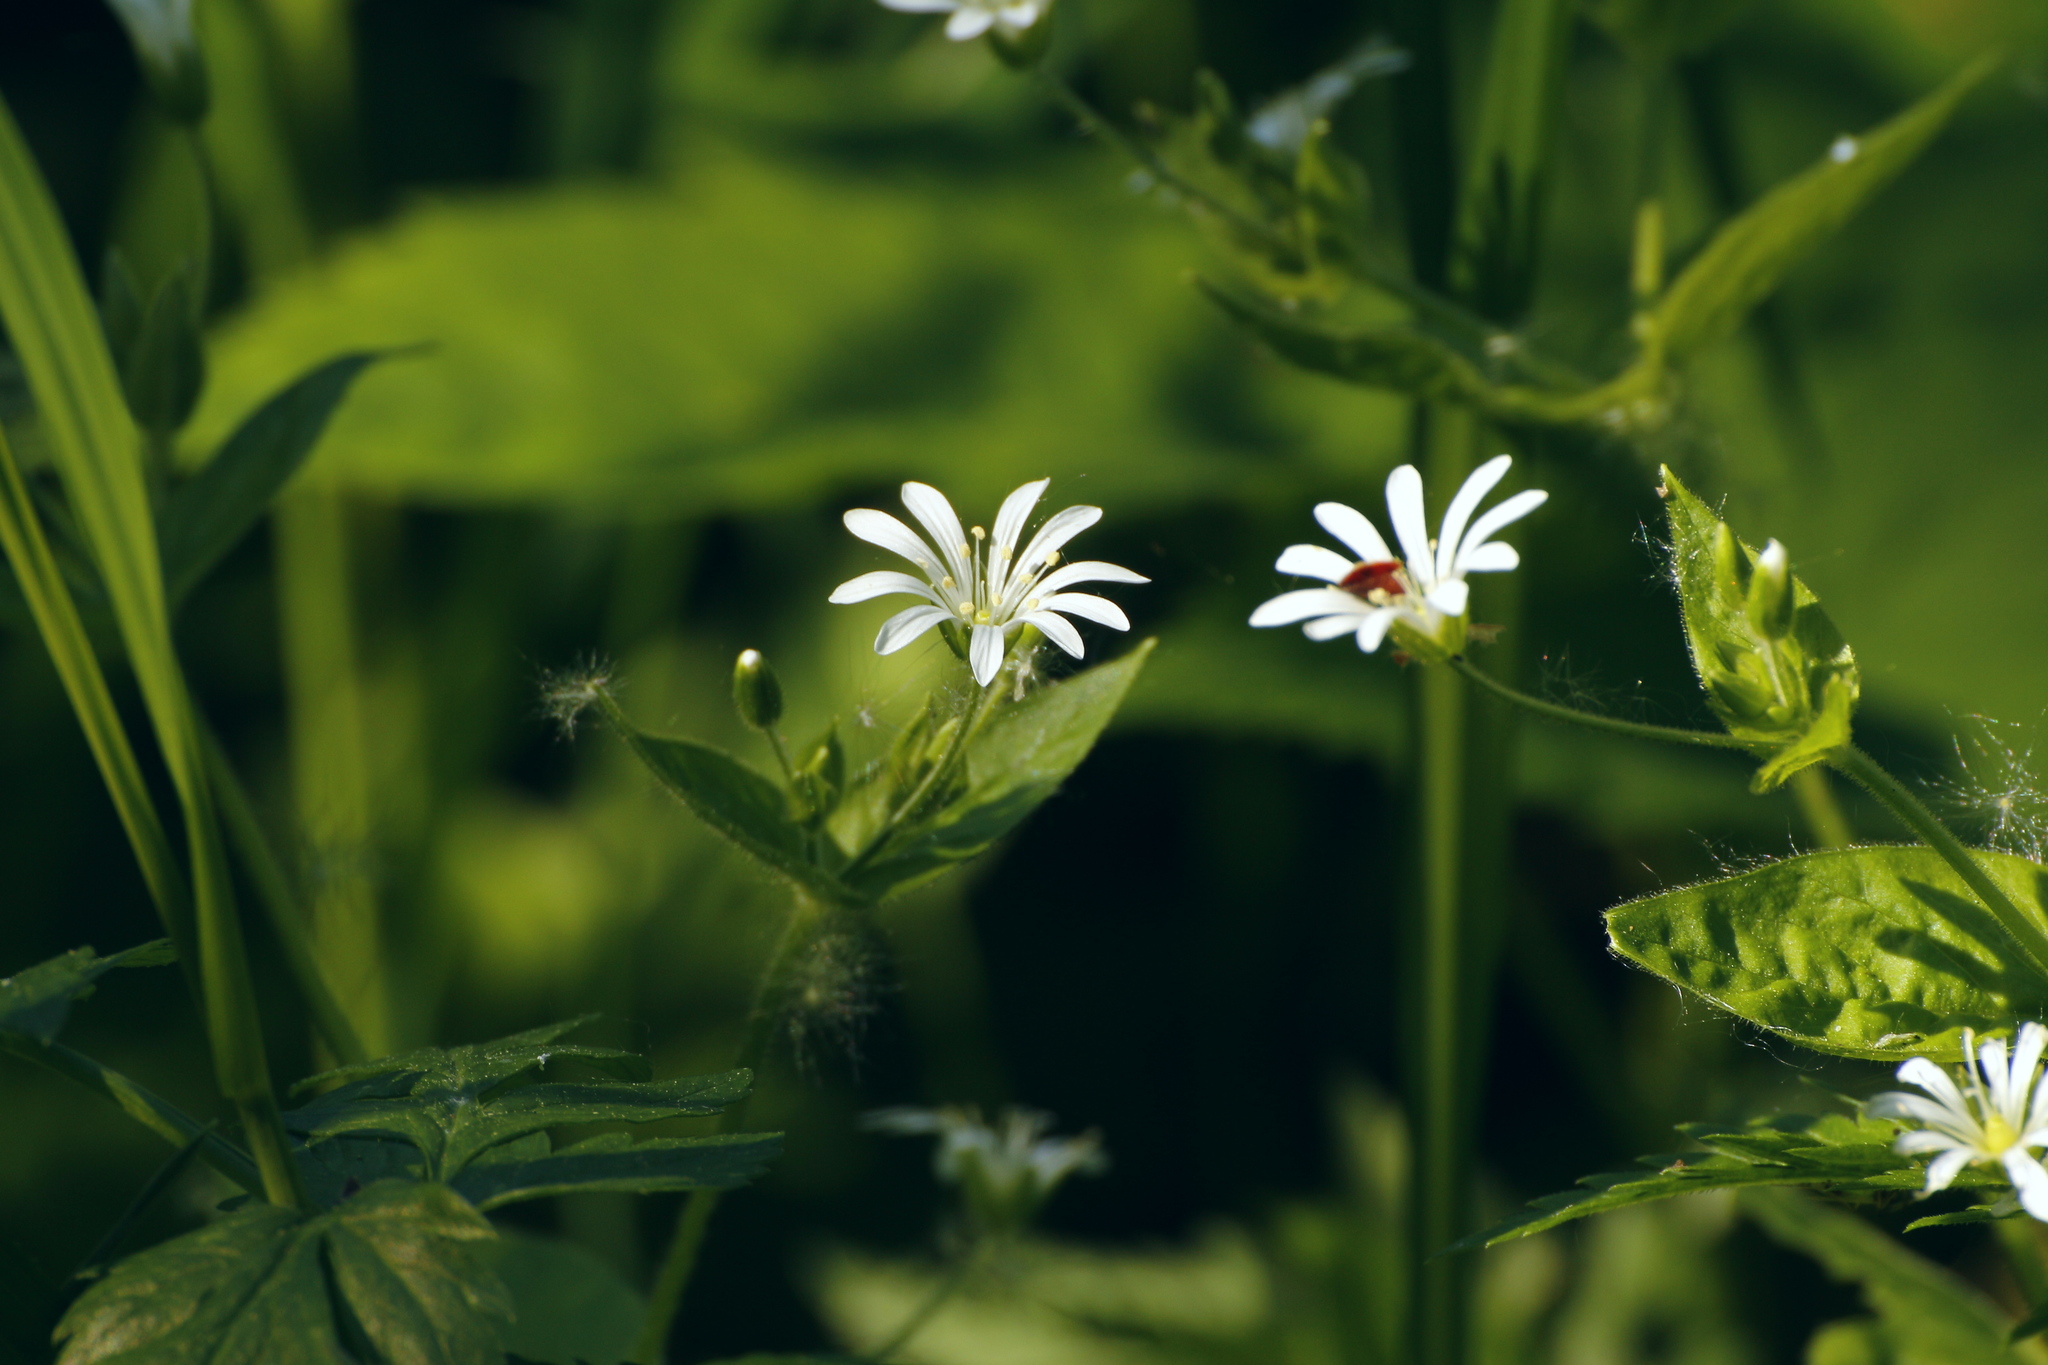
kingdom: Plantae
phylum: Tracheophyta
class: Magnoliopsida
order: Caryophyllales
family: Caryophyllaceae
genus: Stellaria
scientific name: Stellaria nemorum
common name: Wood stitchwort
